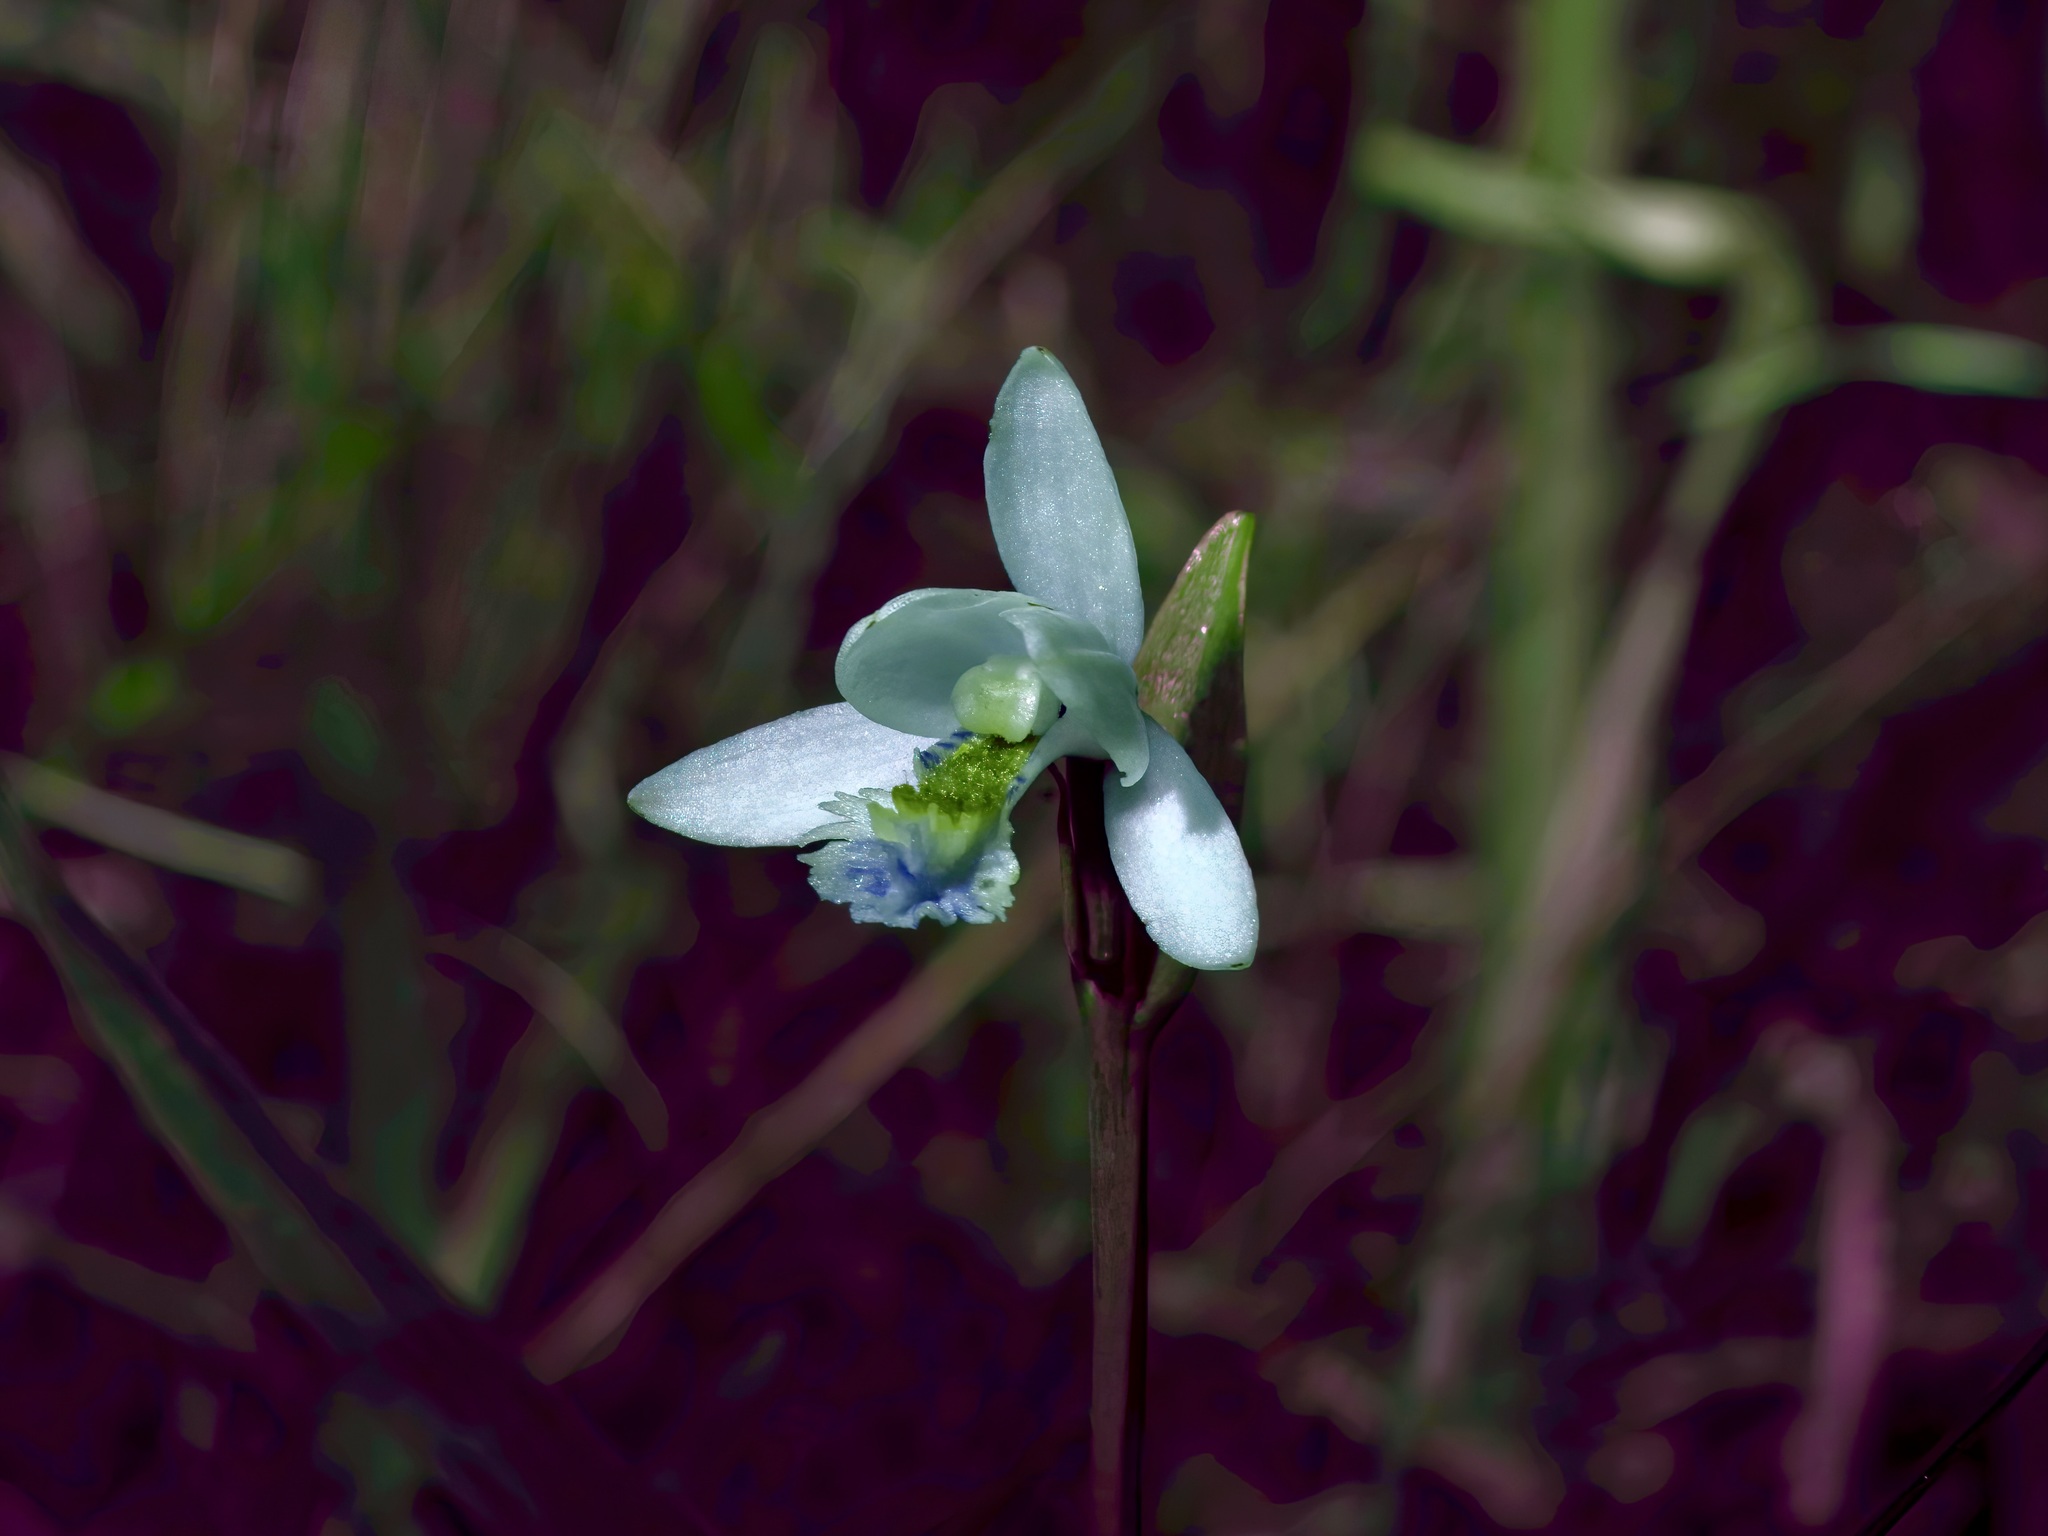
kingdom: Plantae
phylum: Tracheophyta
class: Liliopsida
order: Asparagales
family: Orchidaceae
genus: Pogonia
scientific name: Pogonia ophioglossoides
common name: Rose pogonia
